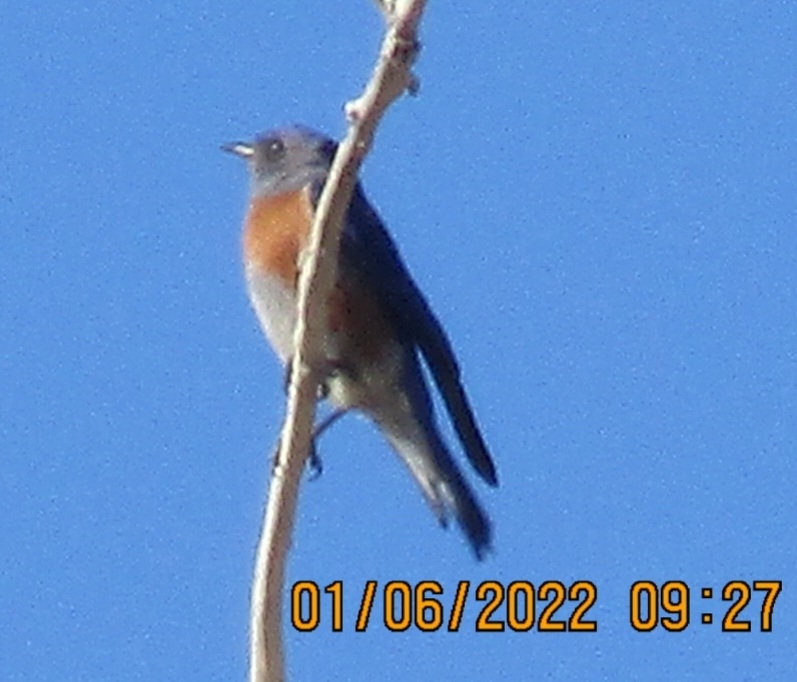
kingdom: Animalia
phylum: Chordata
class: Aves
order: Passeriformes
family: Turdidae
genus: Sialia
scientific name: Sialia mexicana
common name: Western bluebird
